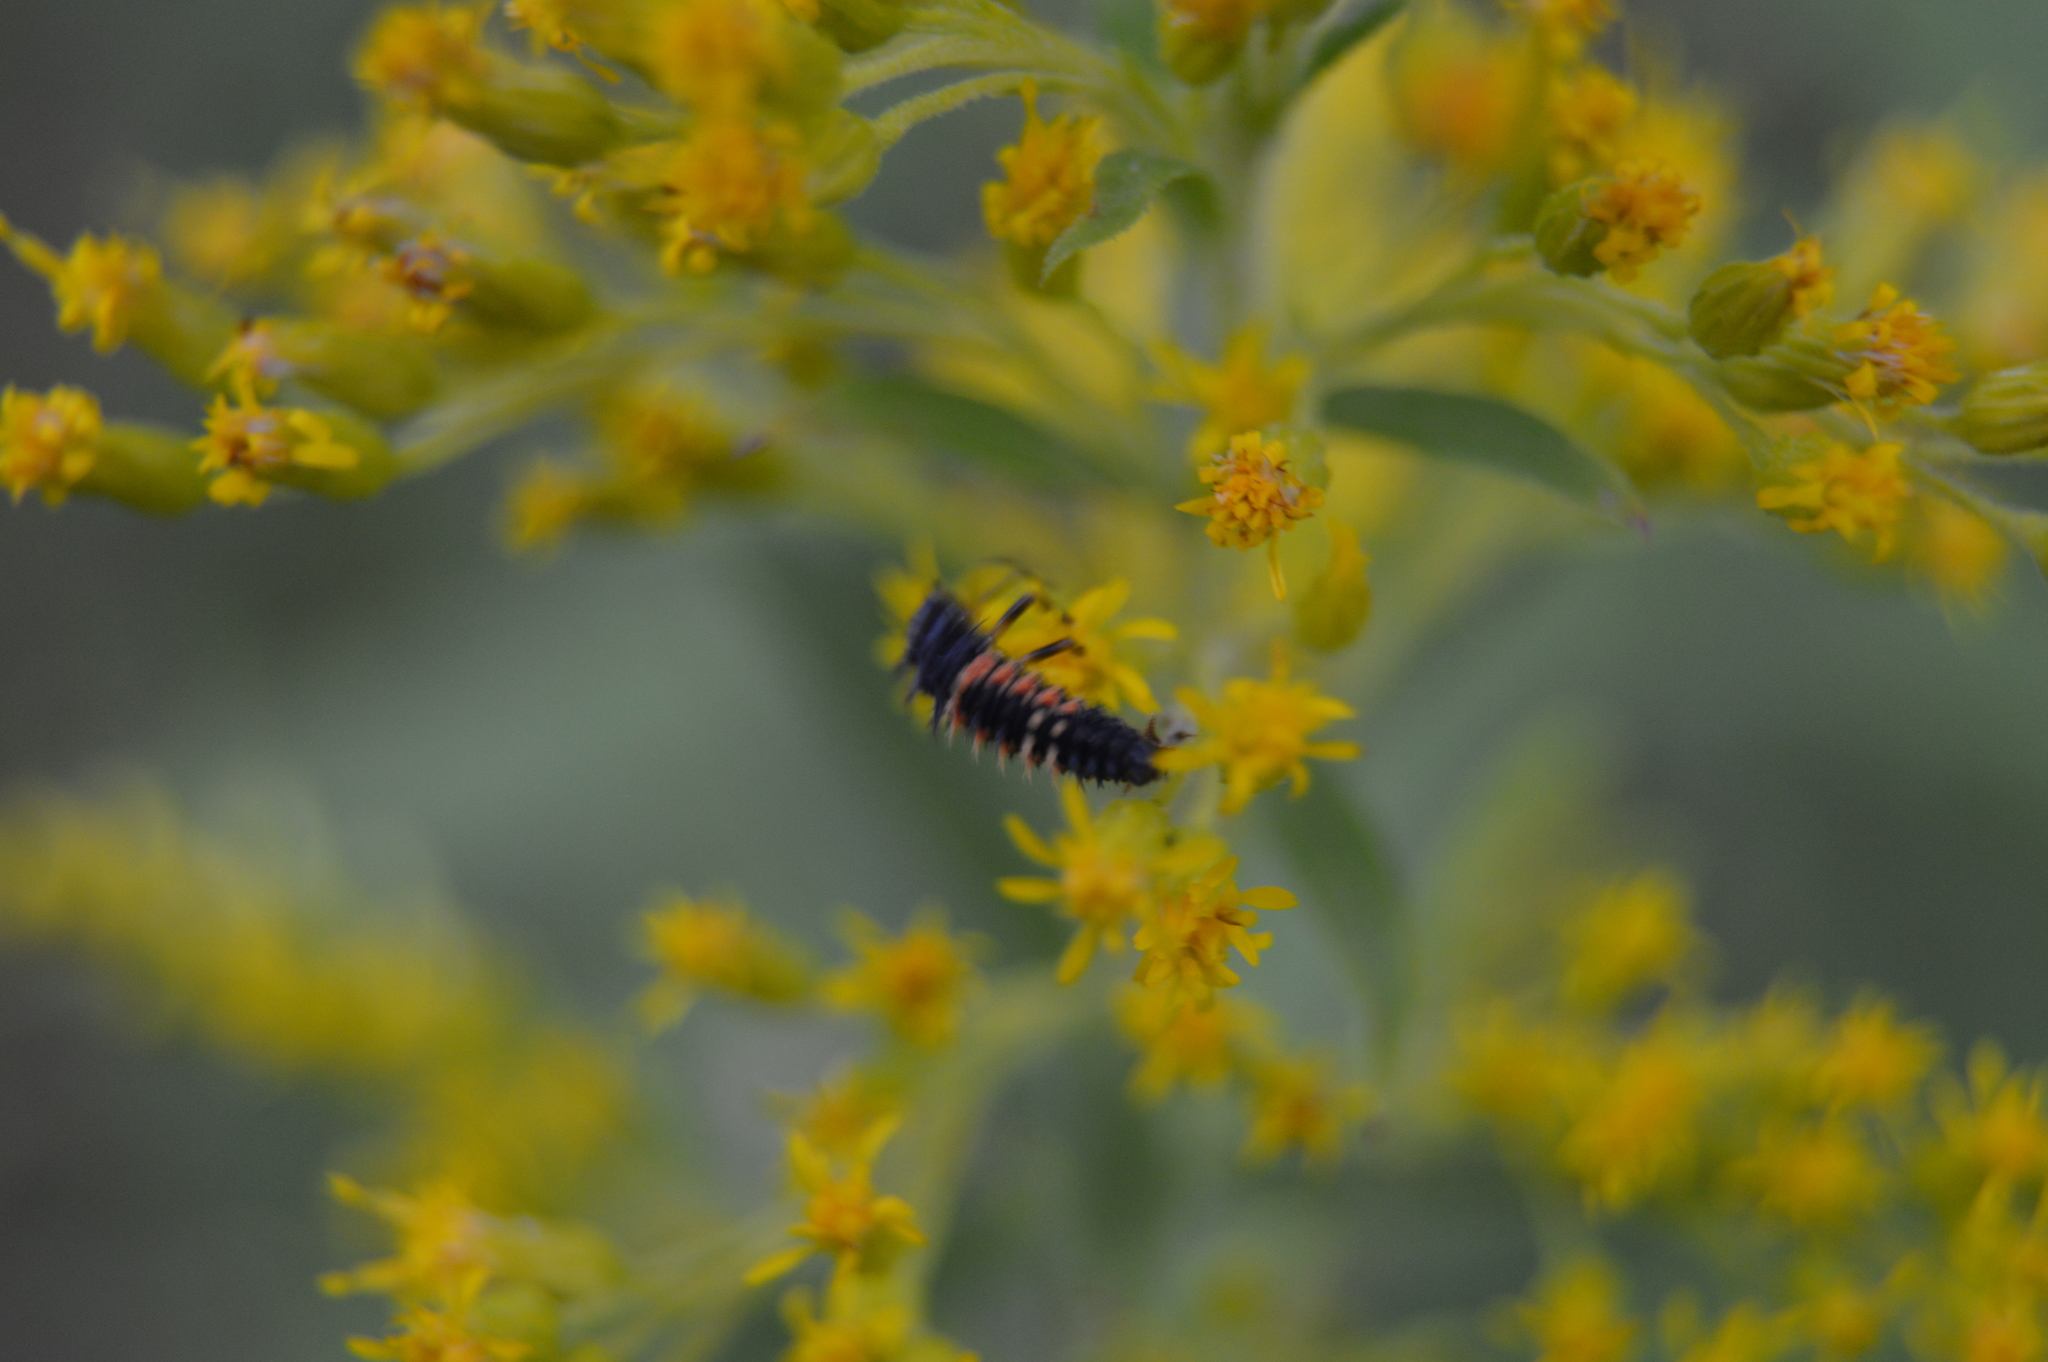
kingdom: Animalia
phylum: Arthropoda
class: Insecta
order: Coleoptera
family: Coccinellidae
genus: Harmonia
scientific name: Harmonia axyridis
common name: Harlequin ladybird
